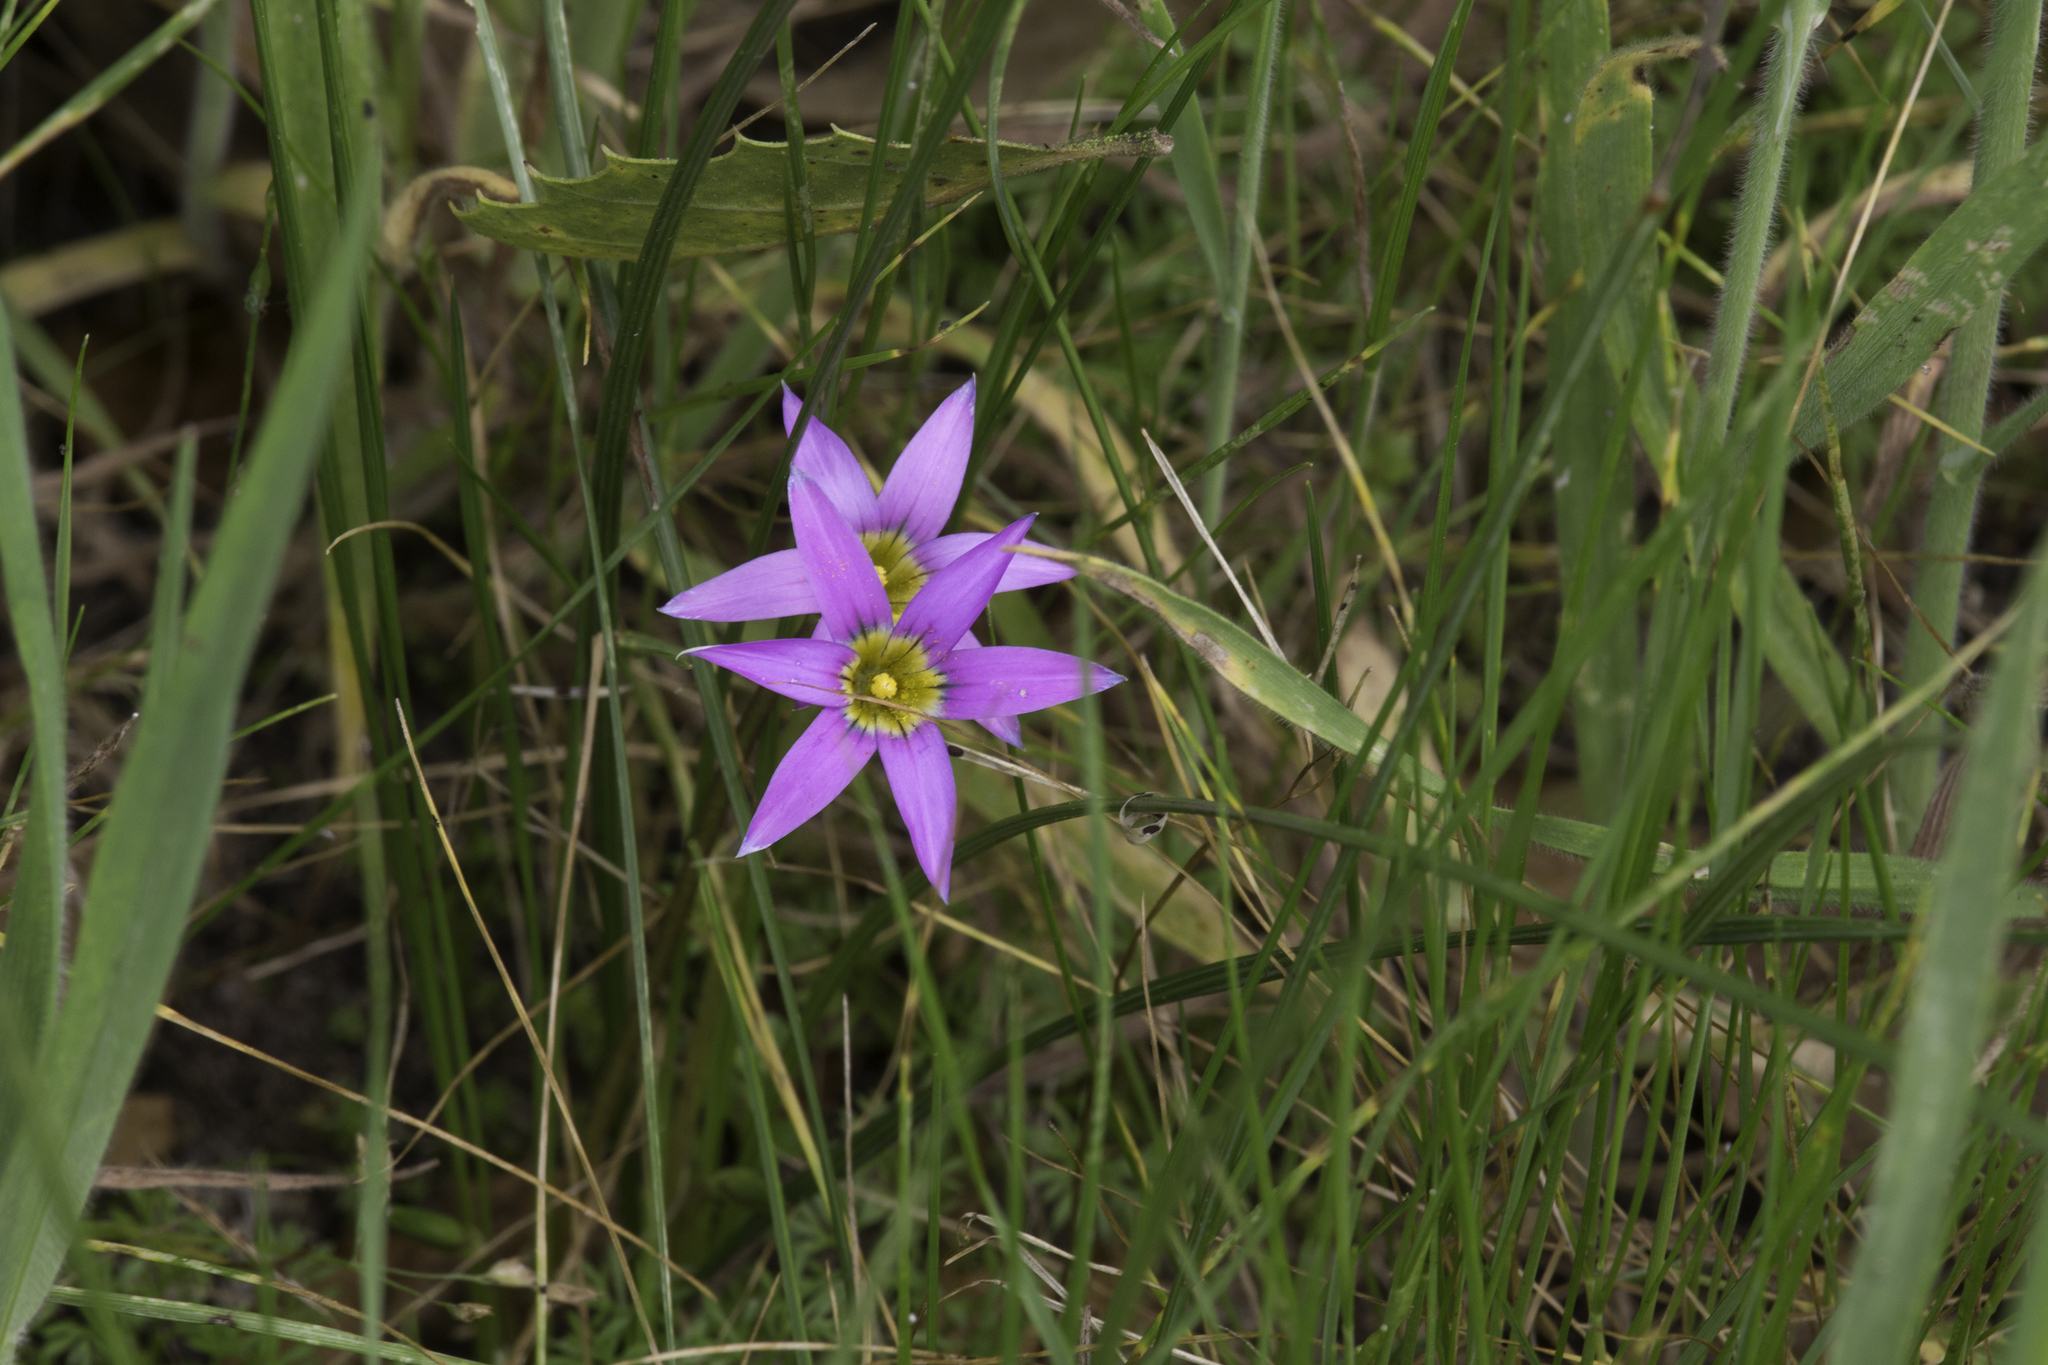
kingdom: Plantae
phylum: Tracheophyta
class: Liliopsida
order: Asparagales
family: Iridaceae
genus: Romulea
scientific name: Romulea rosea
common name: Oniongrass
